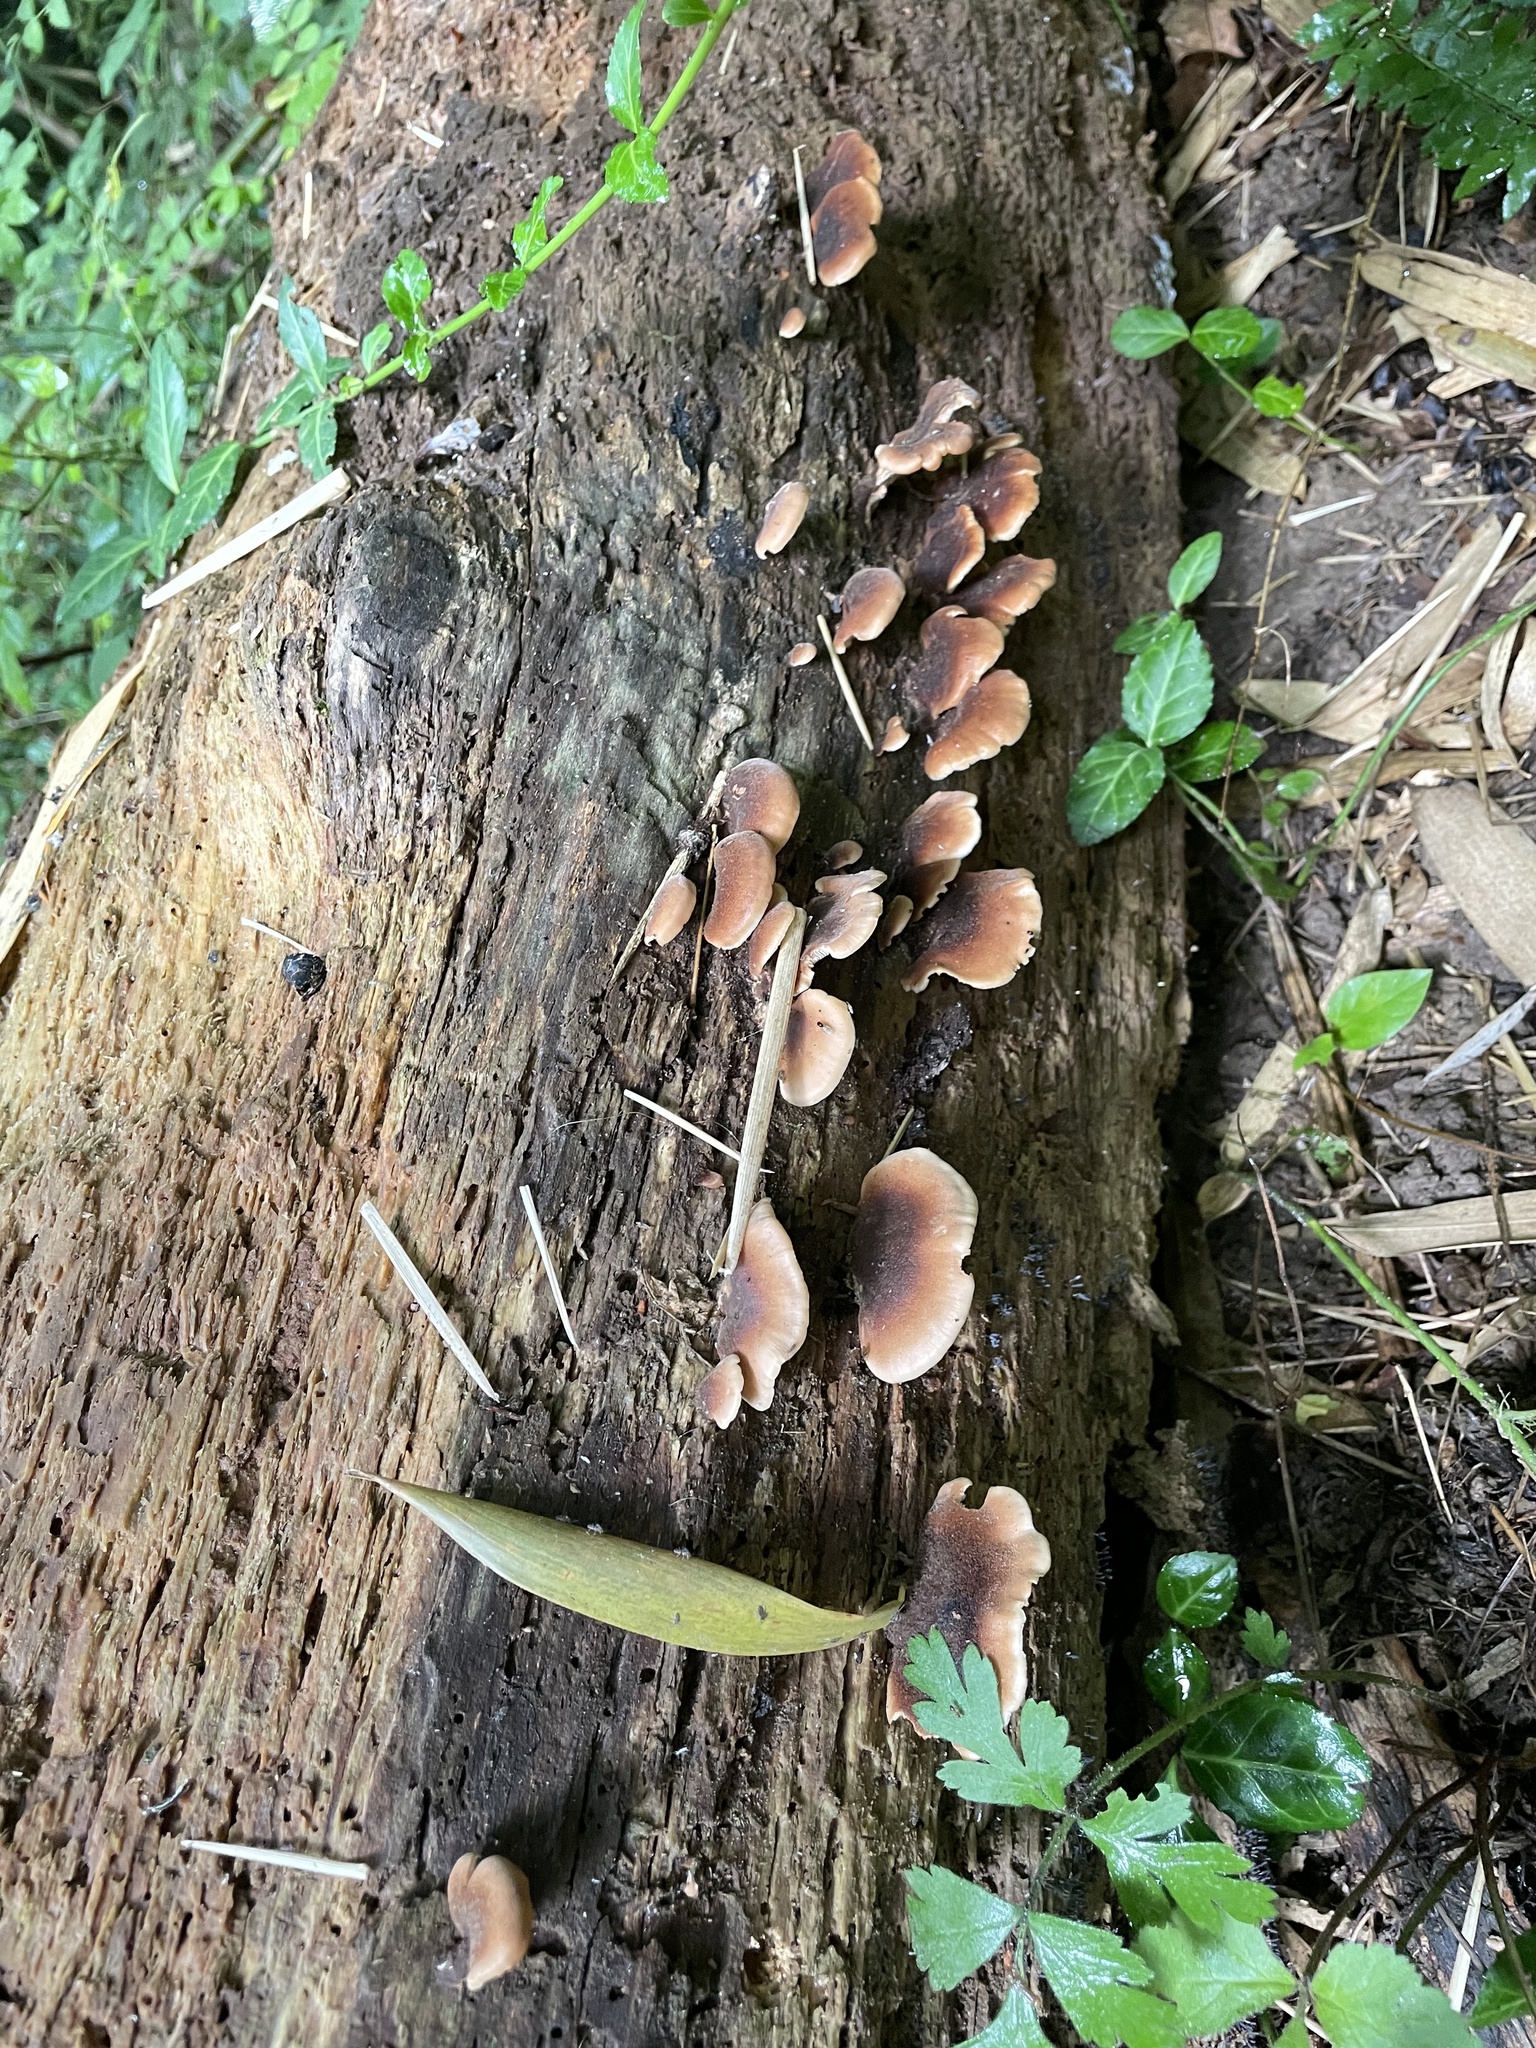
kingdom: Fungi
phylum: Basidiomycota
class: Agaricomycetes
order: Russulales
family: Auriscalpiaceae
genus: Lentinellus
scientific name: Lentinellus ursinus
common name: Bear lentinus
